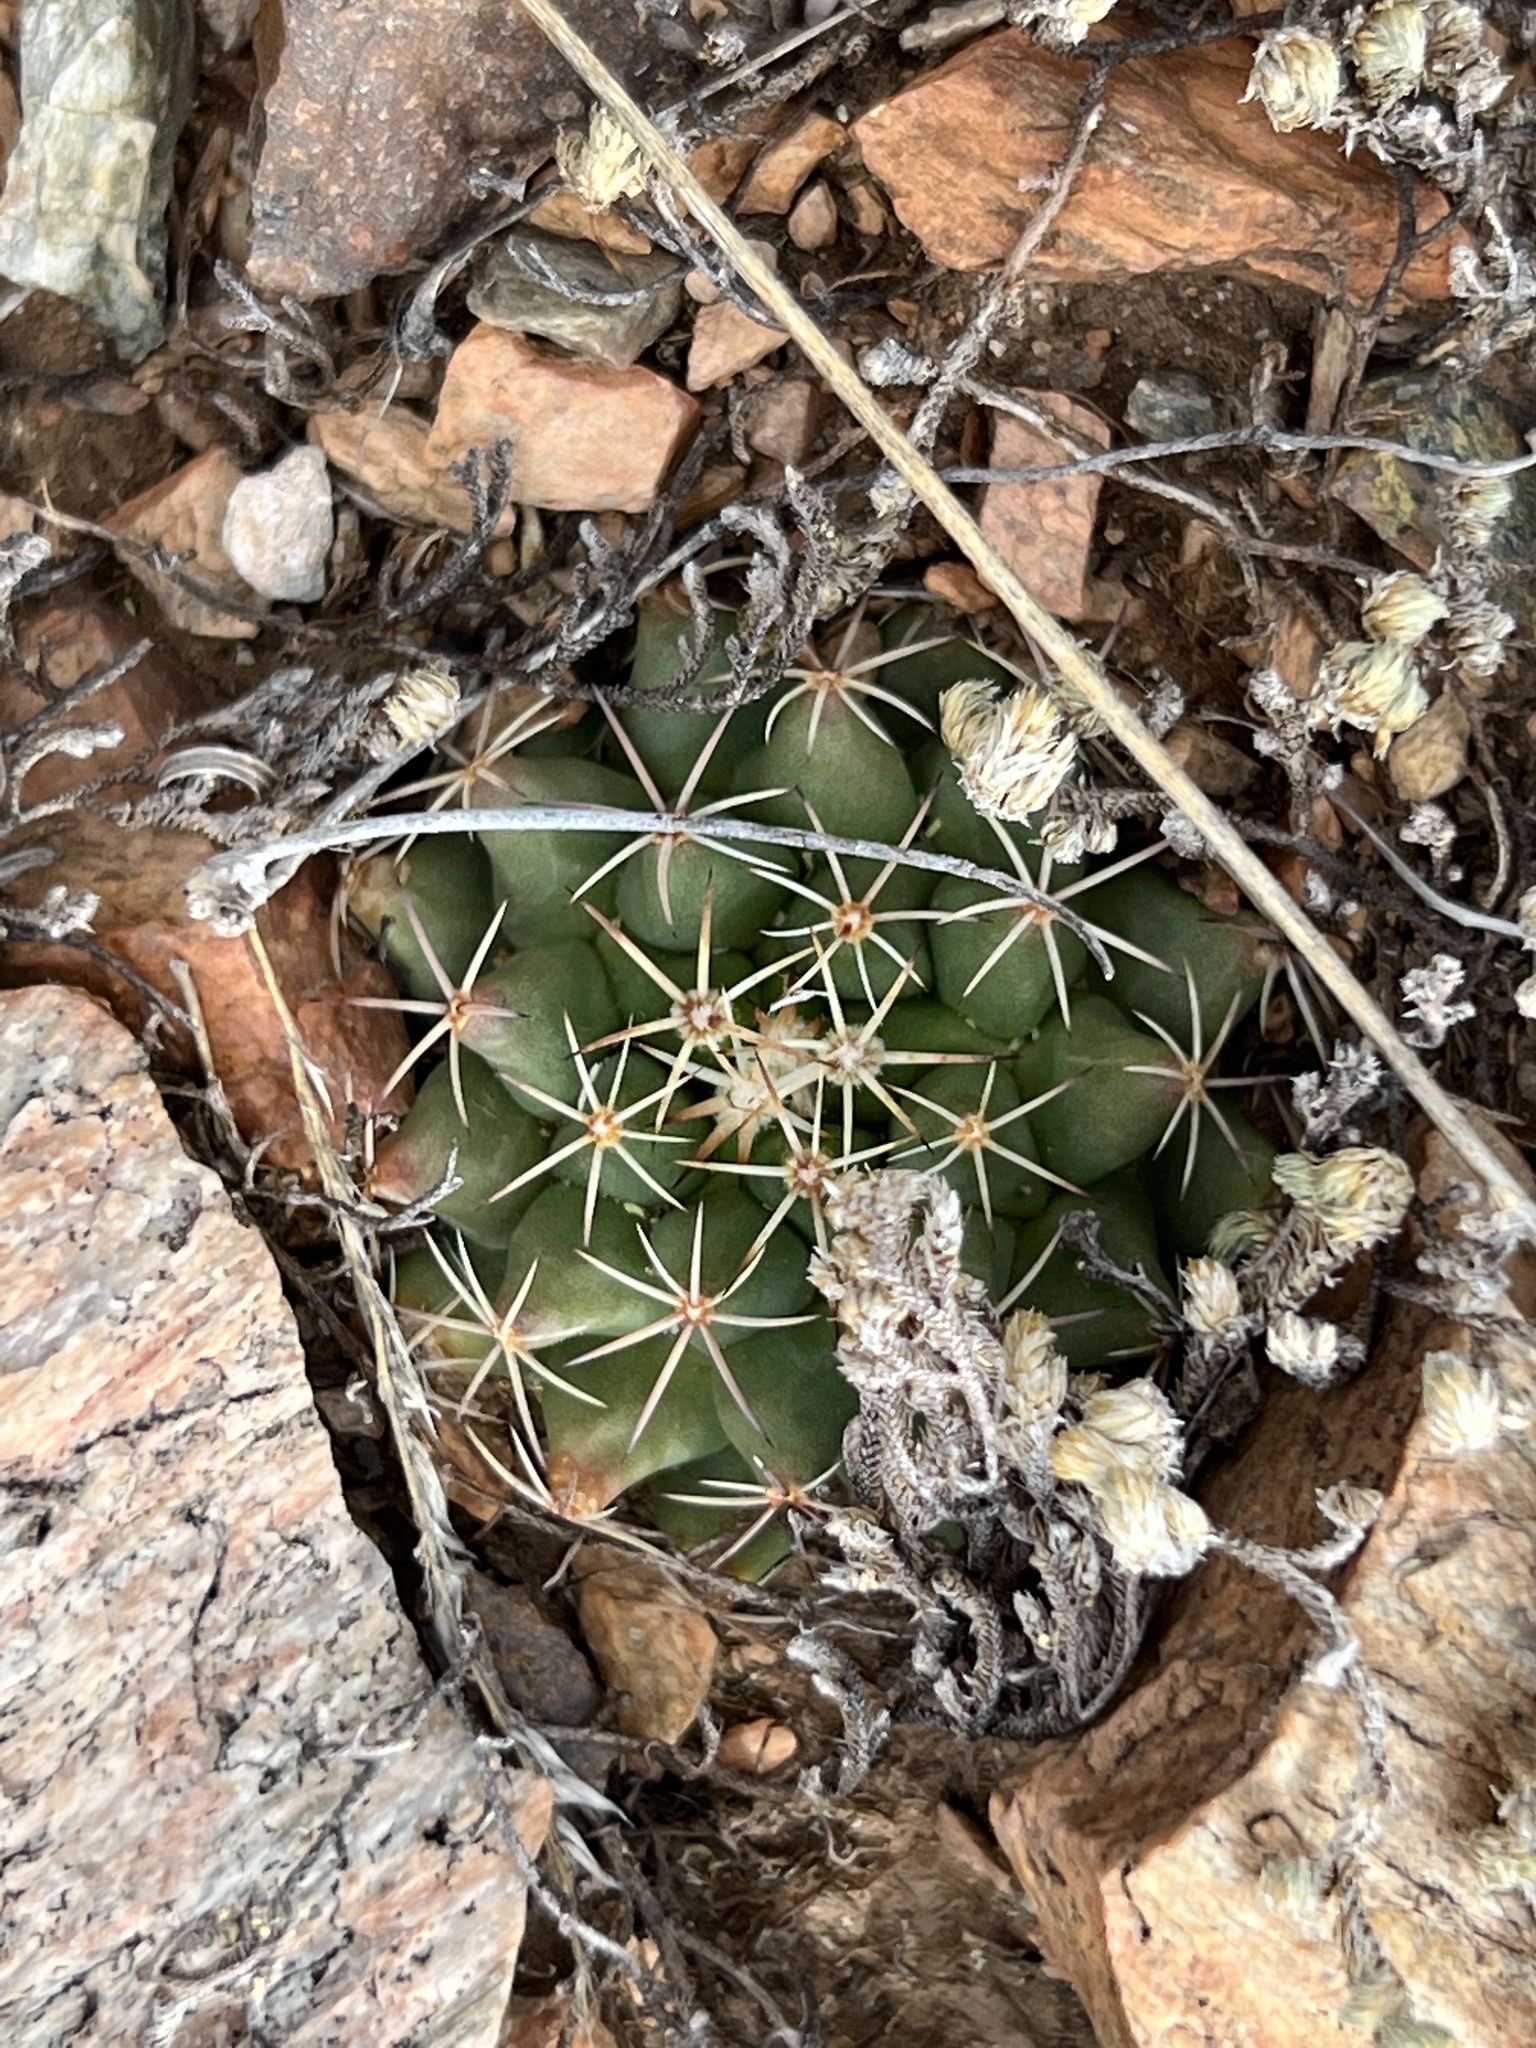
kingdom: Plantae
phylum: Tracheophyta
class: Magnoliopsida
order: Caryophyllales
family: Cactaceae
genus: Mammillaria
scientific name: Mammillaria heyderi
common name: Little nipple cactus
